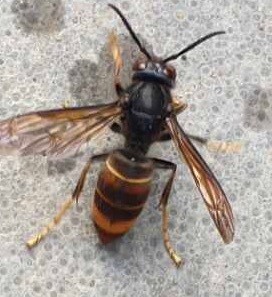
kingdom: Animalia
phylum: Arthropoda
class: Insecta
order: Hymenoptera
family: Vespidae
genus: Vespa
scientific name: Vespa velutina
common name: Asian hornet
